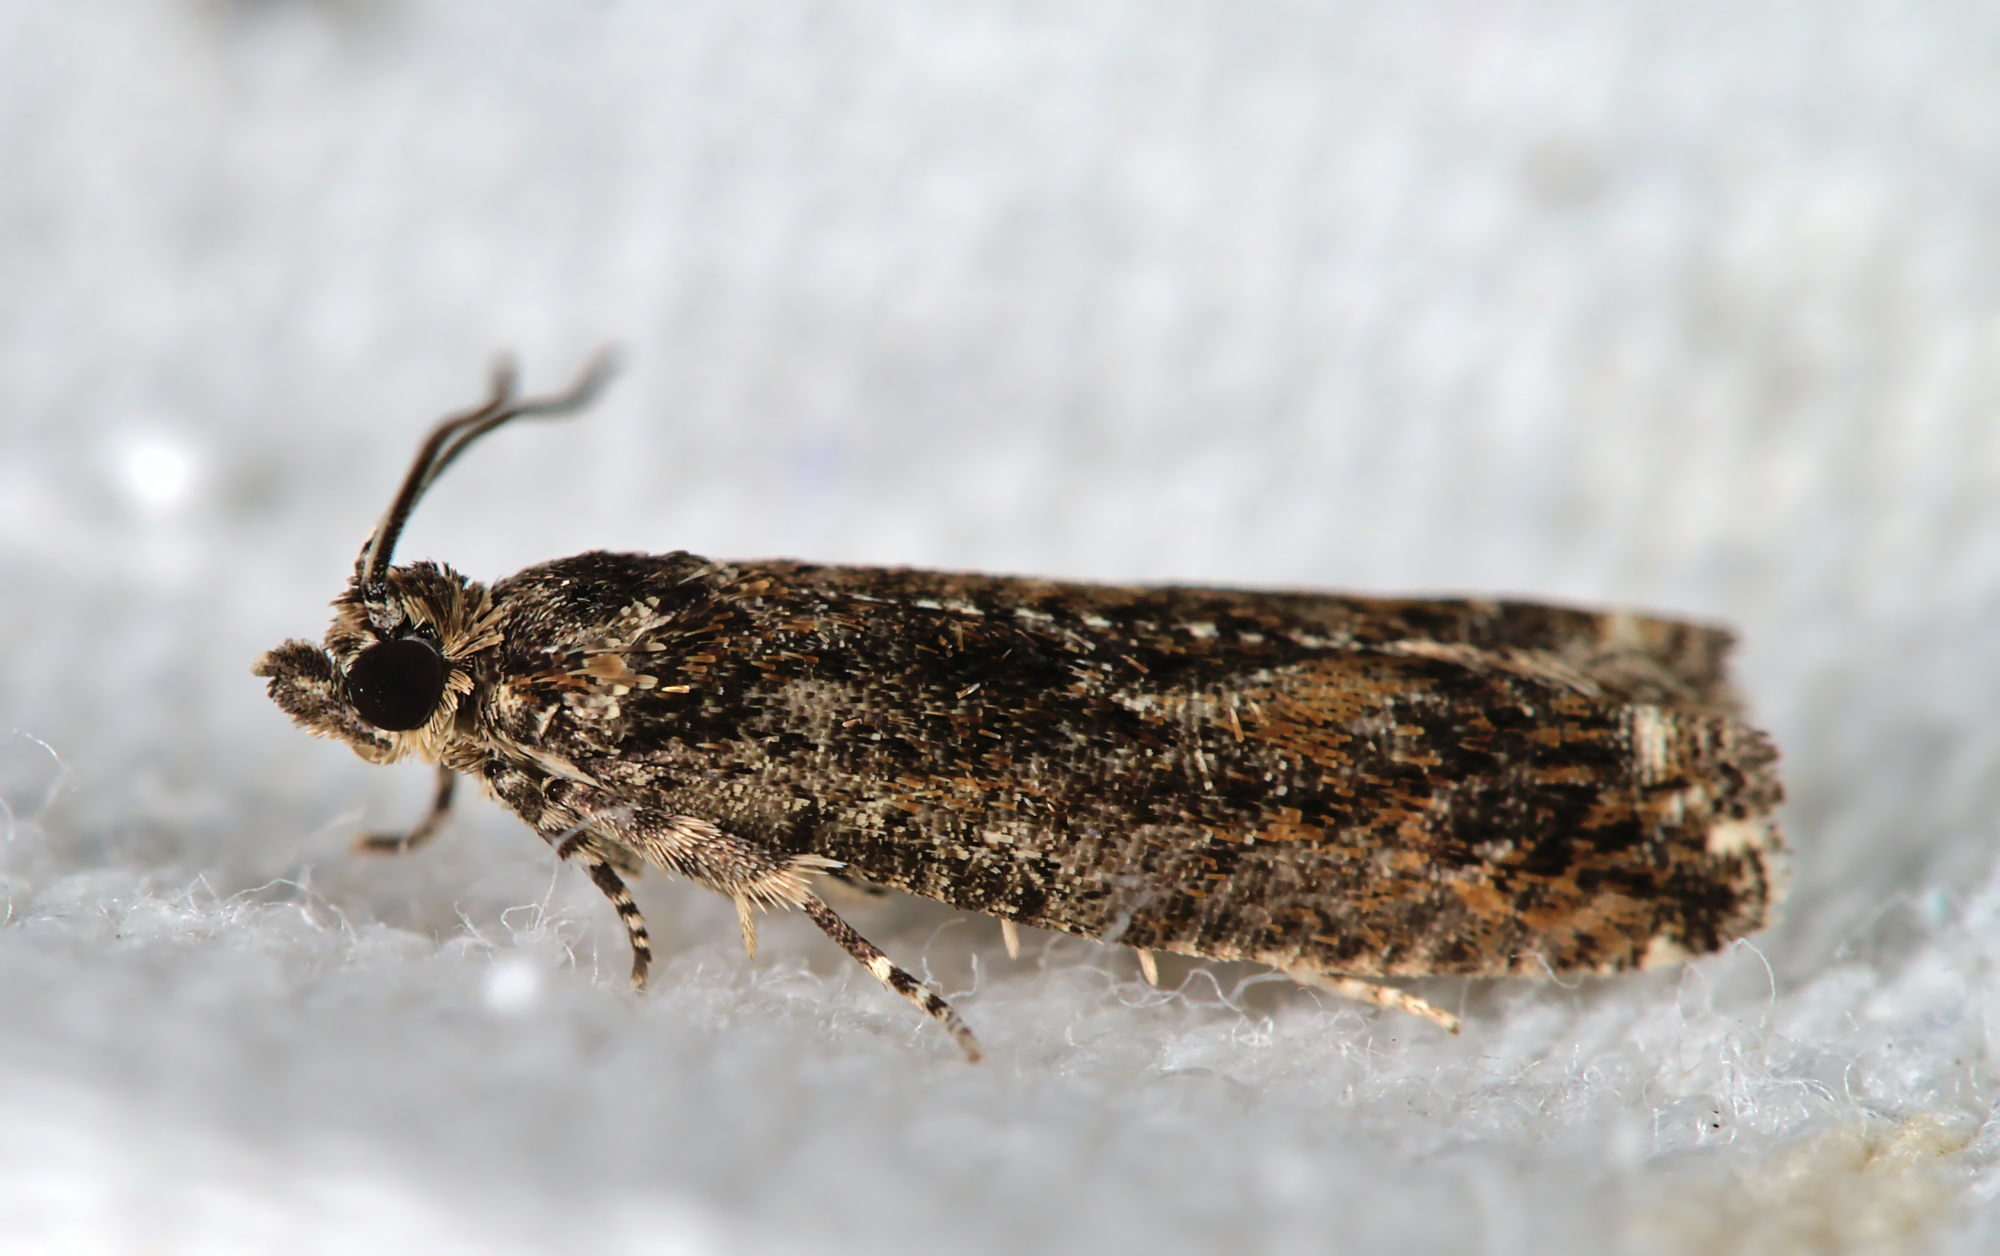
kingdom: Animalia
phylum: Arthropoda
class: Insecta
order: Lepidoptera
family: Tortricidae
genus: Epinotia
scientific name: Epinotia immundana
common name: Common birch bell
